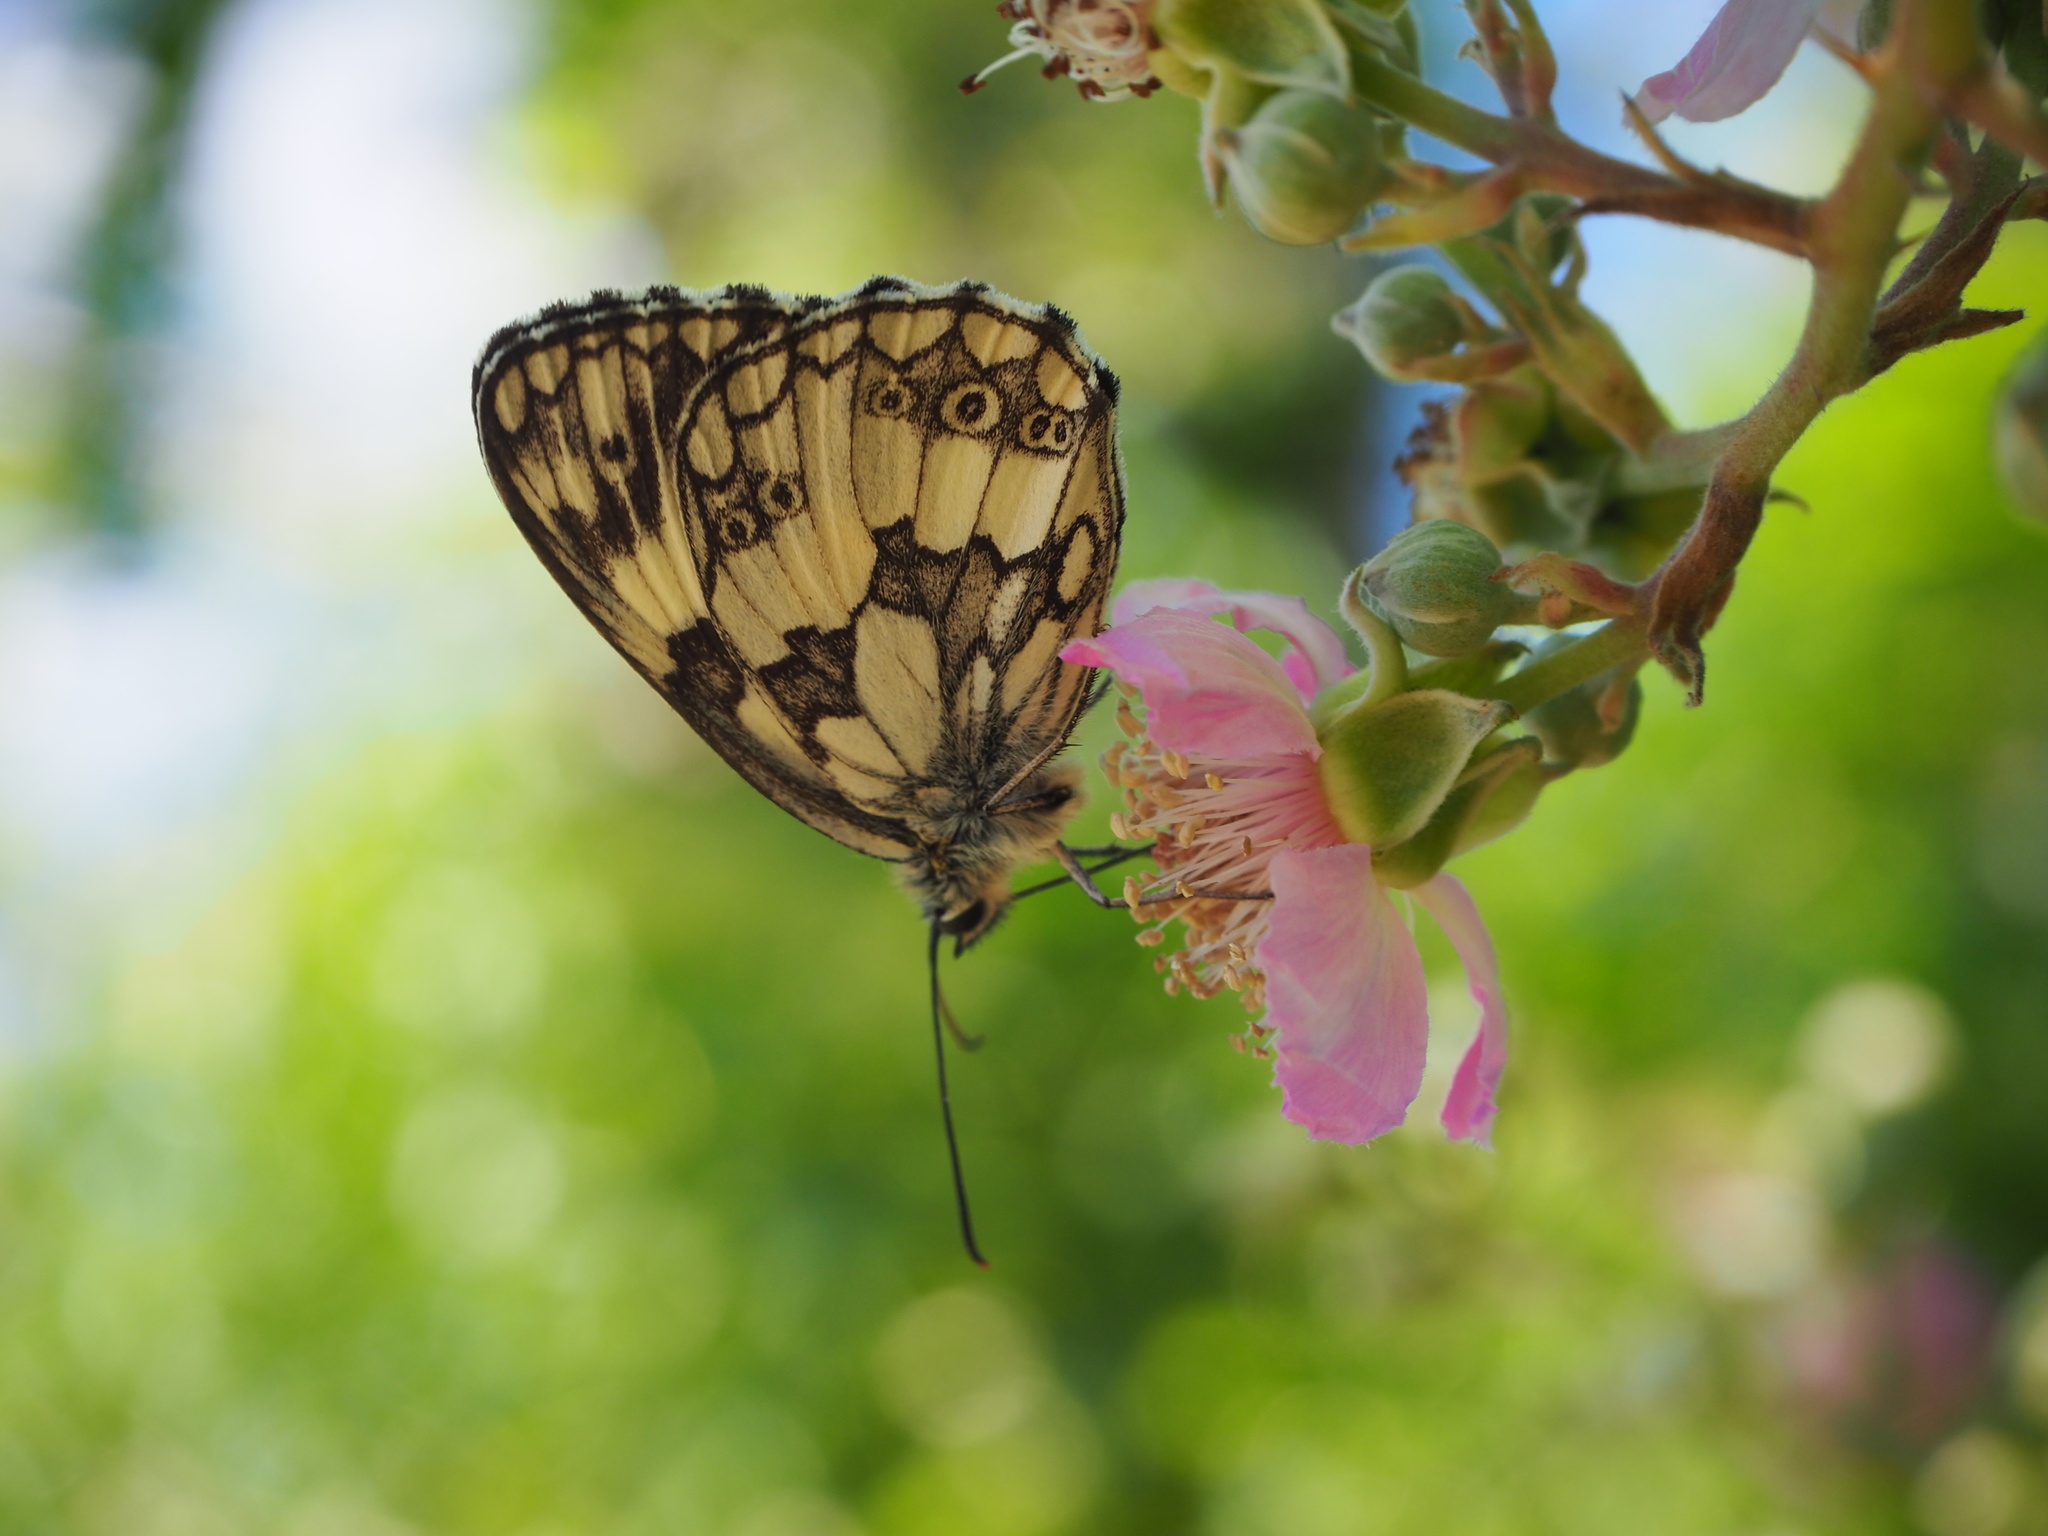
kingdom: Animalia
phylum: Arthropoda
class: Insecta
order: Lepidoptera
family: Nymphalidae
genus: Melanargia
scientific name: Melanargia galathea
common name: Marbled white
